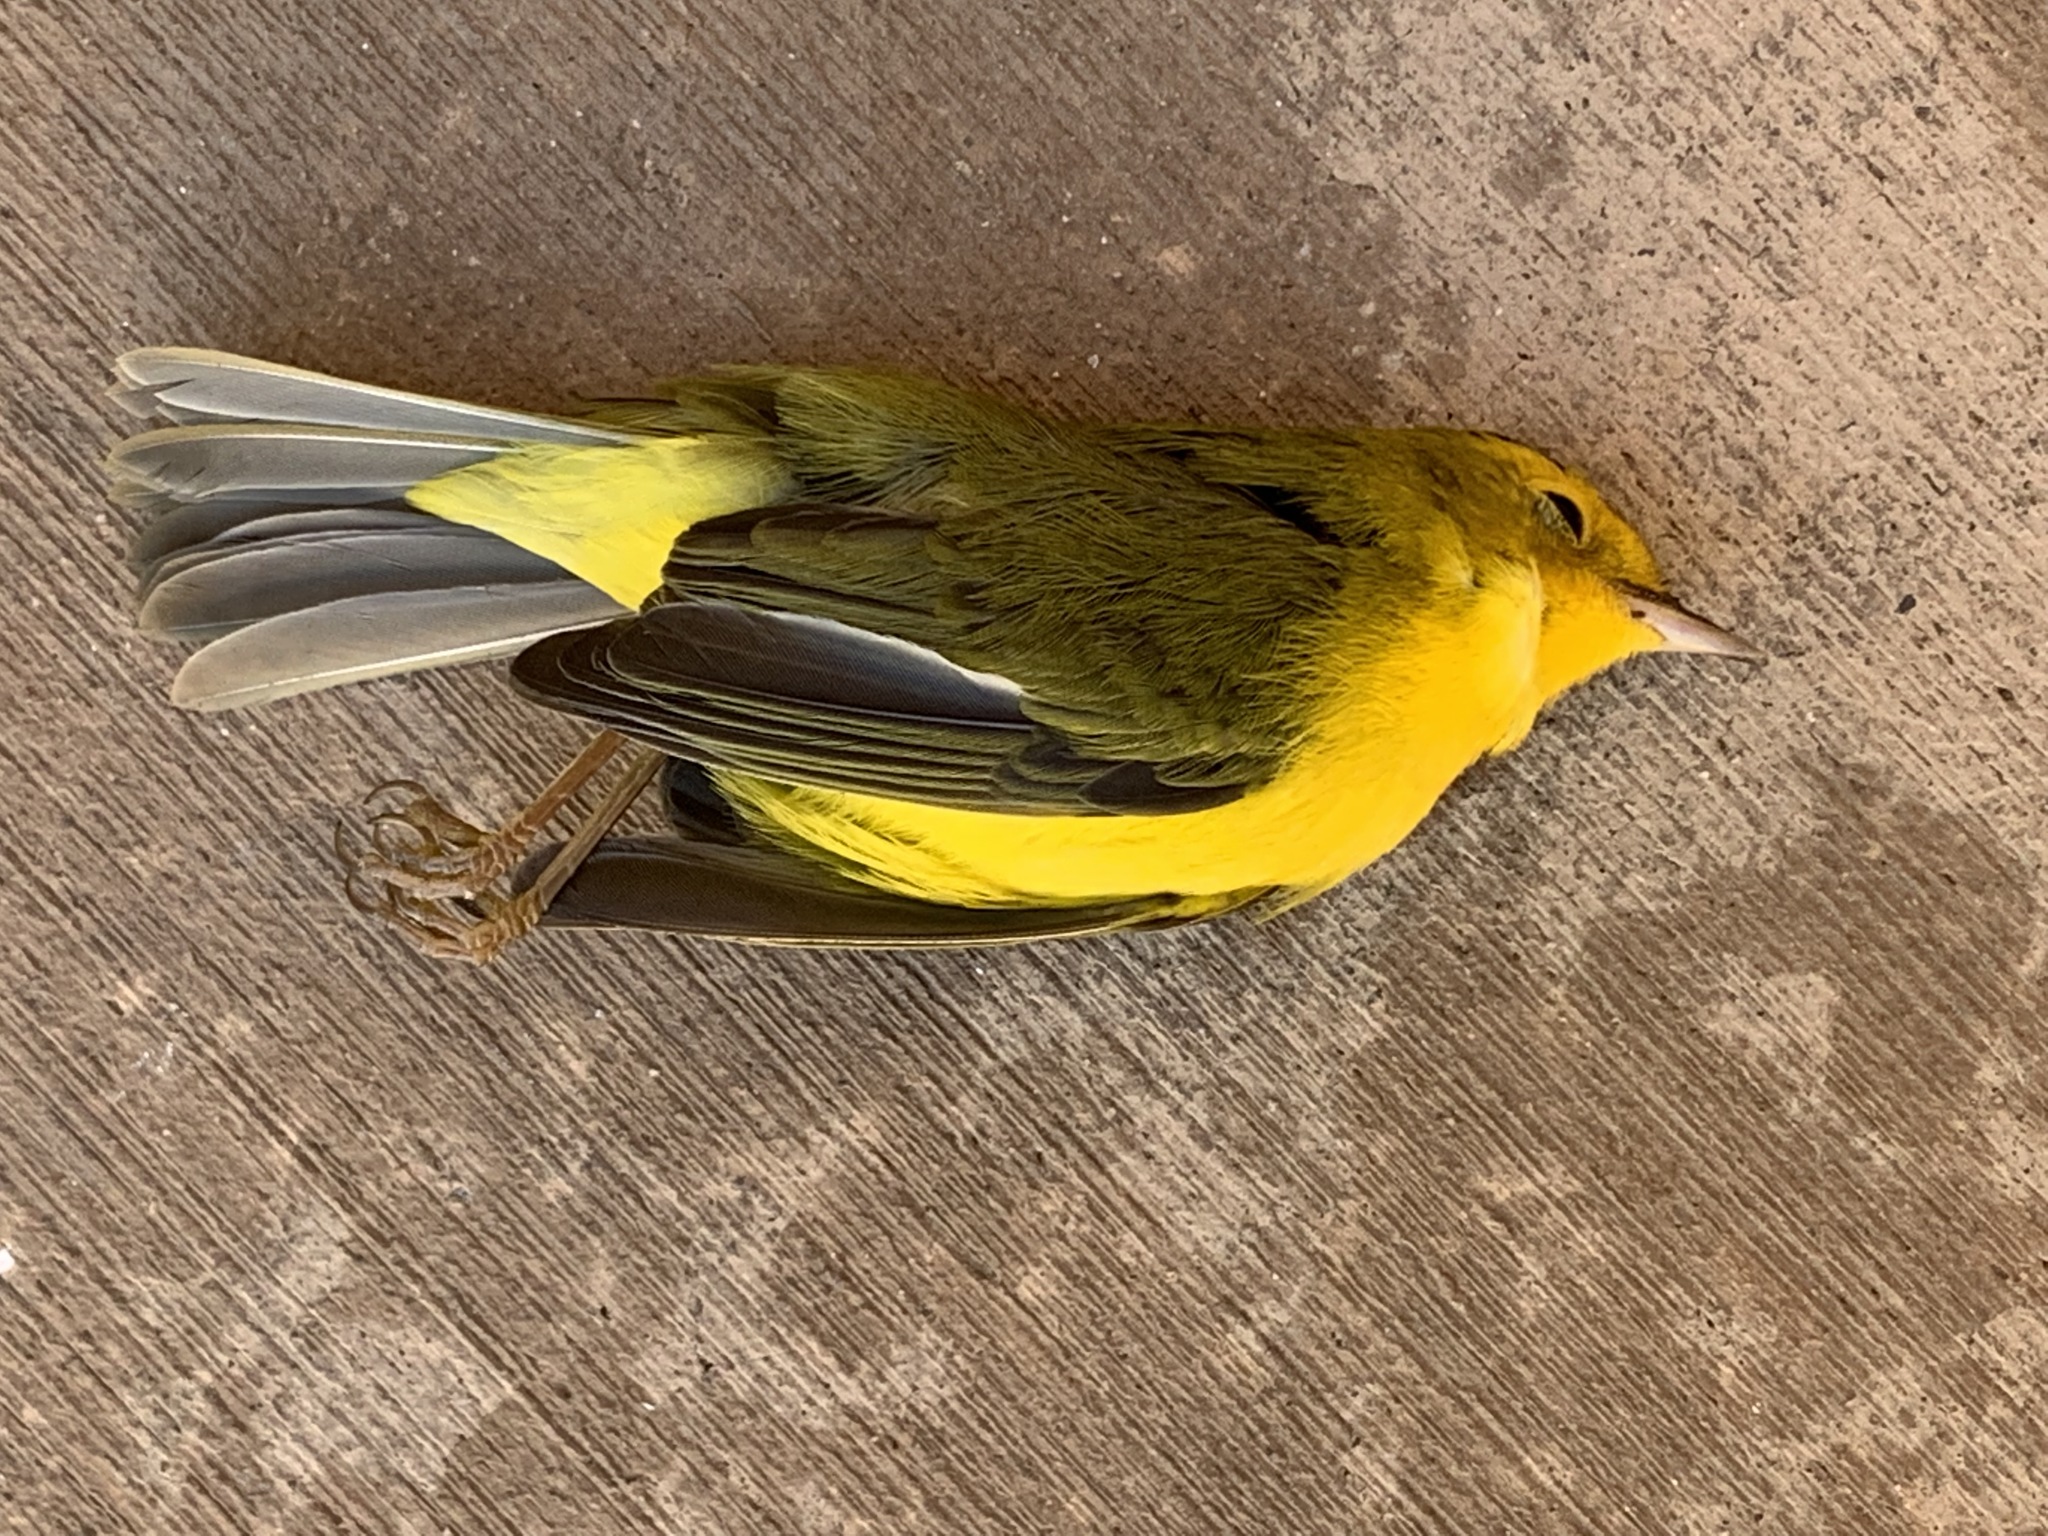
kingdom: Animalia
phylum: Chordata
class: Aves
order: Passeriformes
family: Parulidae
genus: Cardellina
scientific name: Cardellina pusilla
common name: Wilson's warbler
